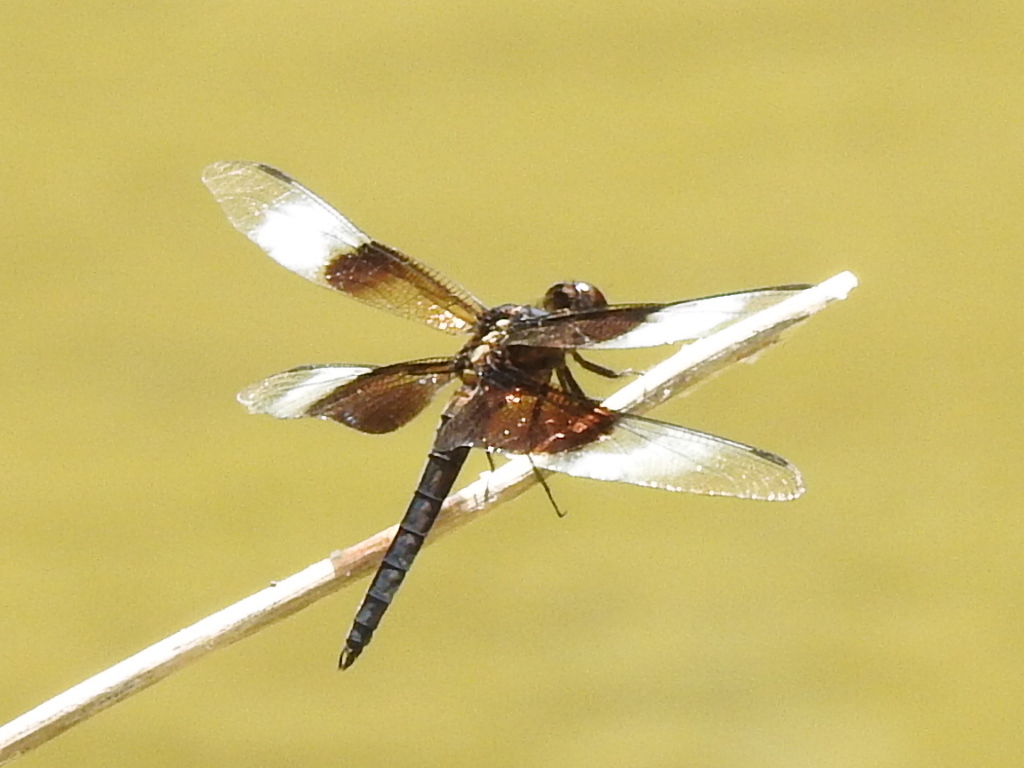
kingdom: Animalia
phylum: Arthropoda
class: Insecta
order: Odonata
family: Libellulidae
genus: Libellula
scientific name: Libellula luctuosa
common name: Widow skimmer
